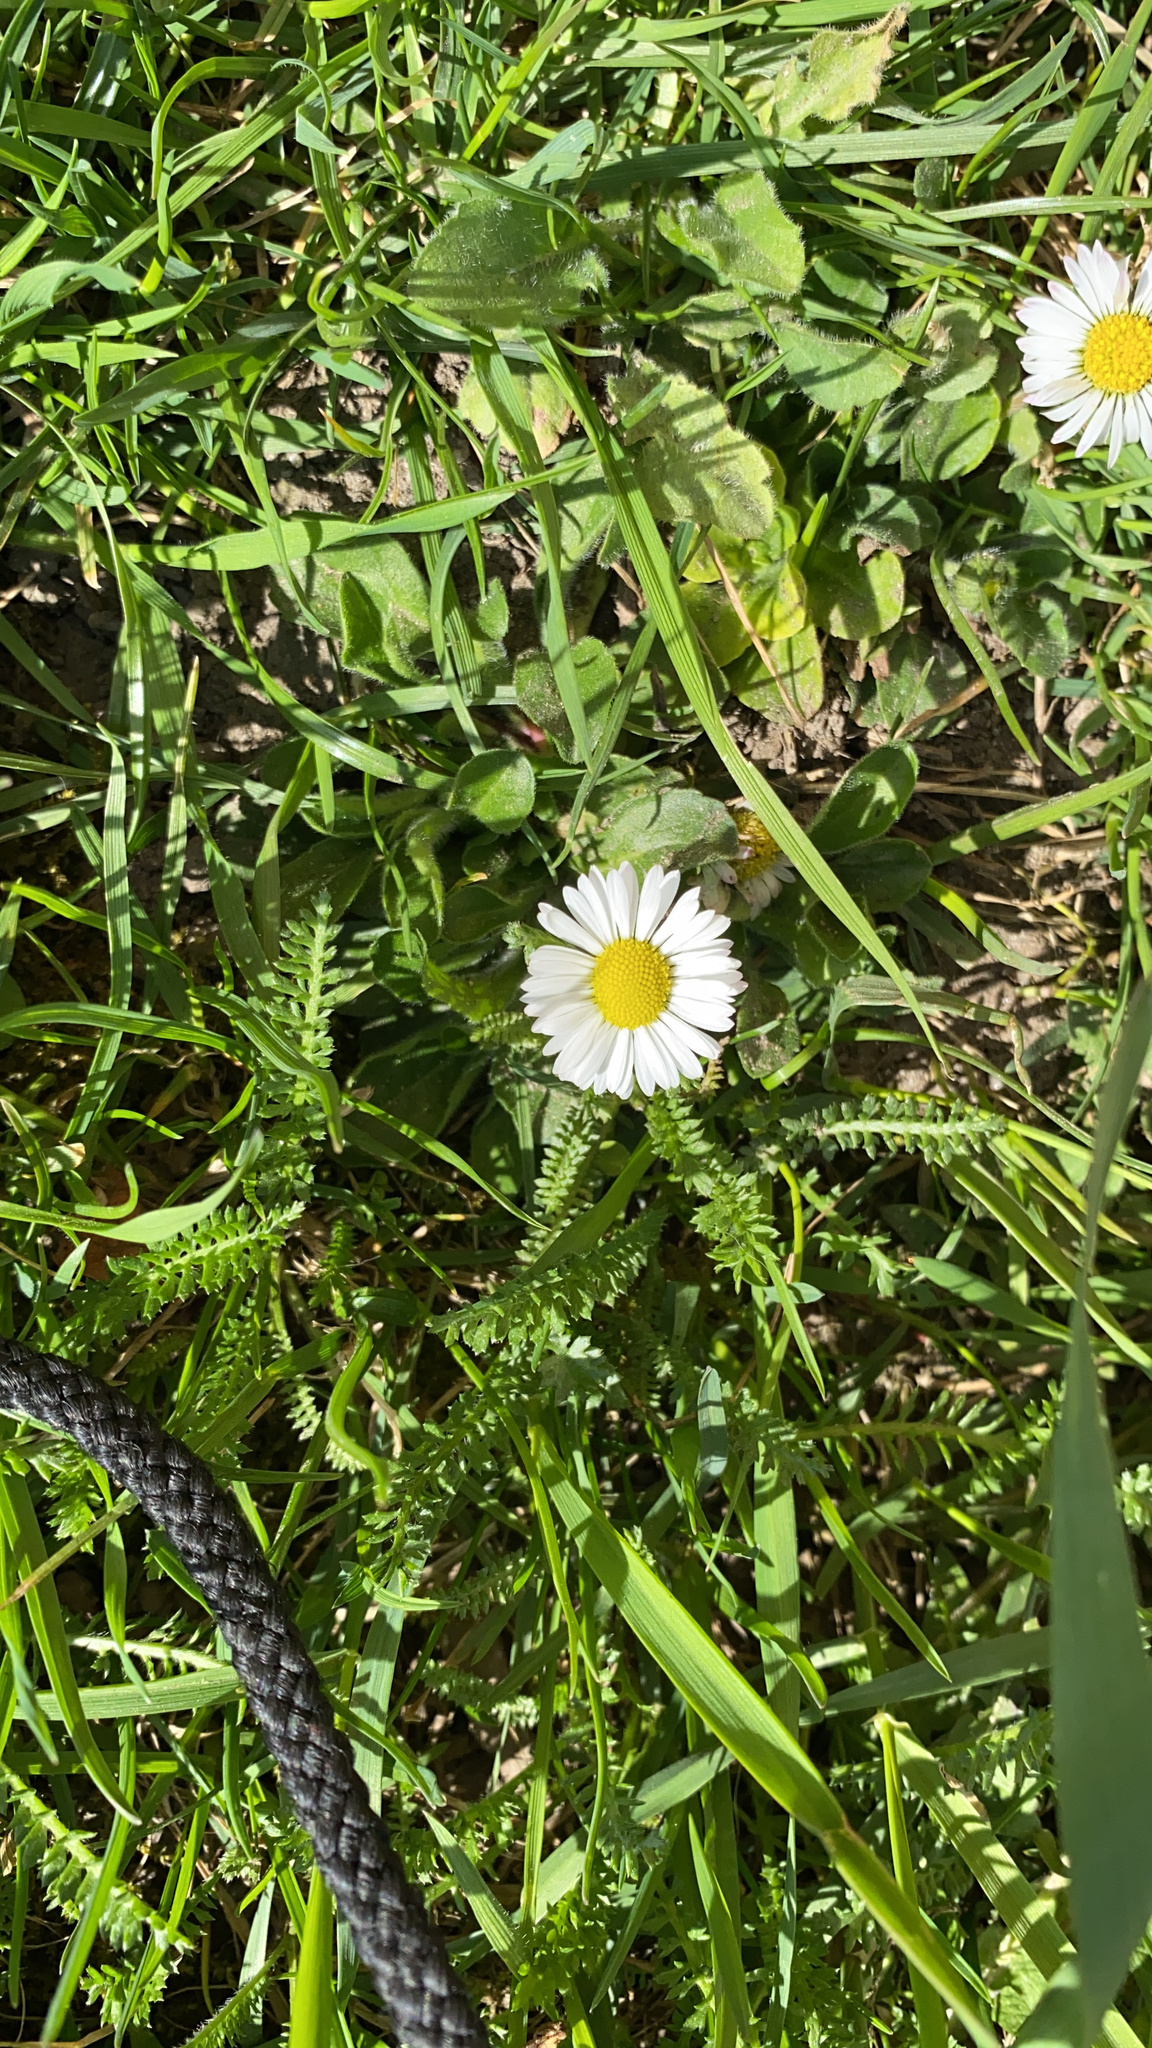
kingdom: Plantae
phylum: Tracheophyta
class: Magnoliopsida
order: Asterales
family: Asteraceae
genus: Bellis
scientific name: Bellis perennis
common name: Lawndaisy
